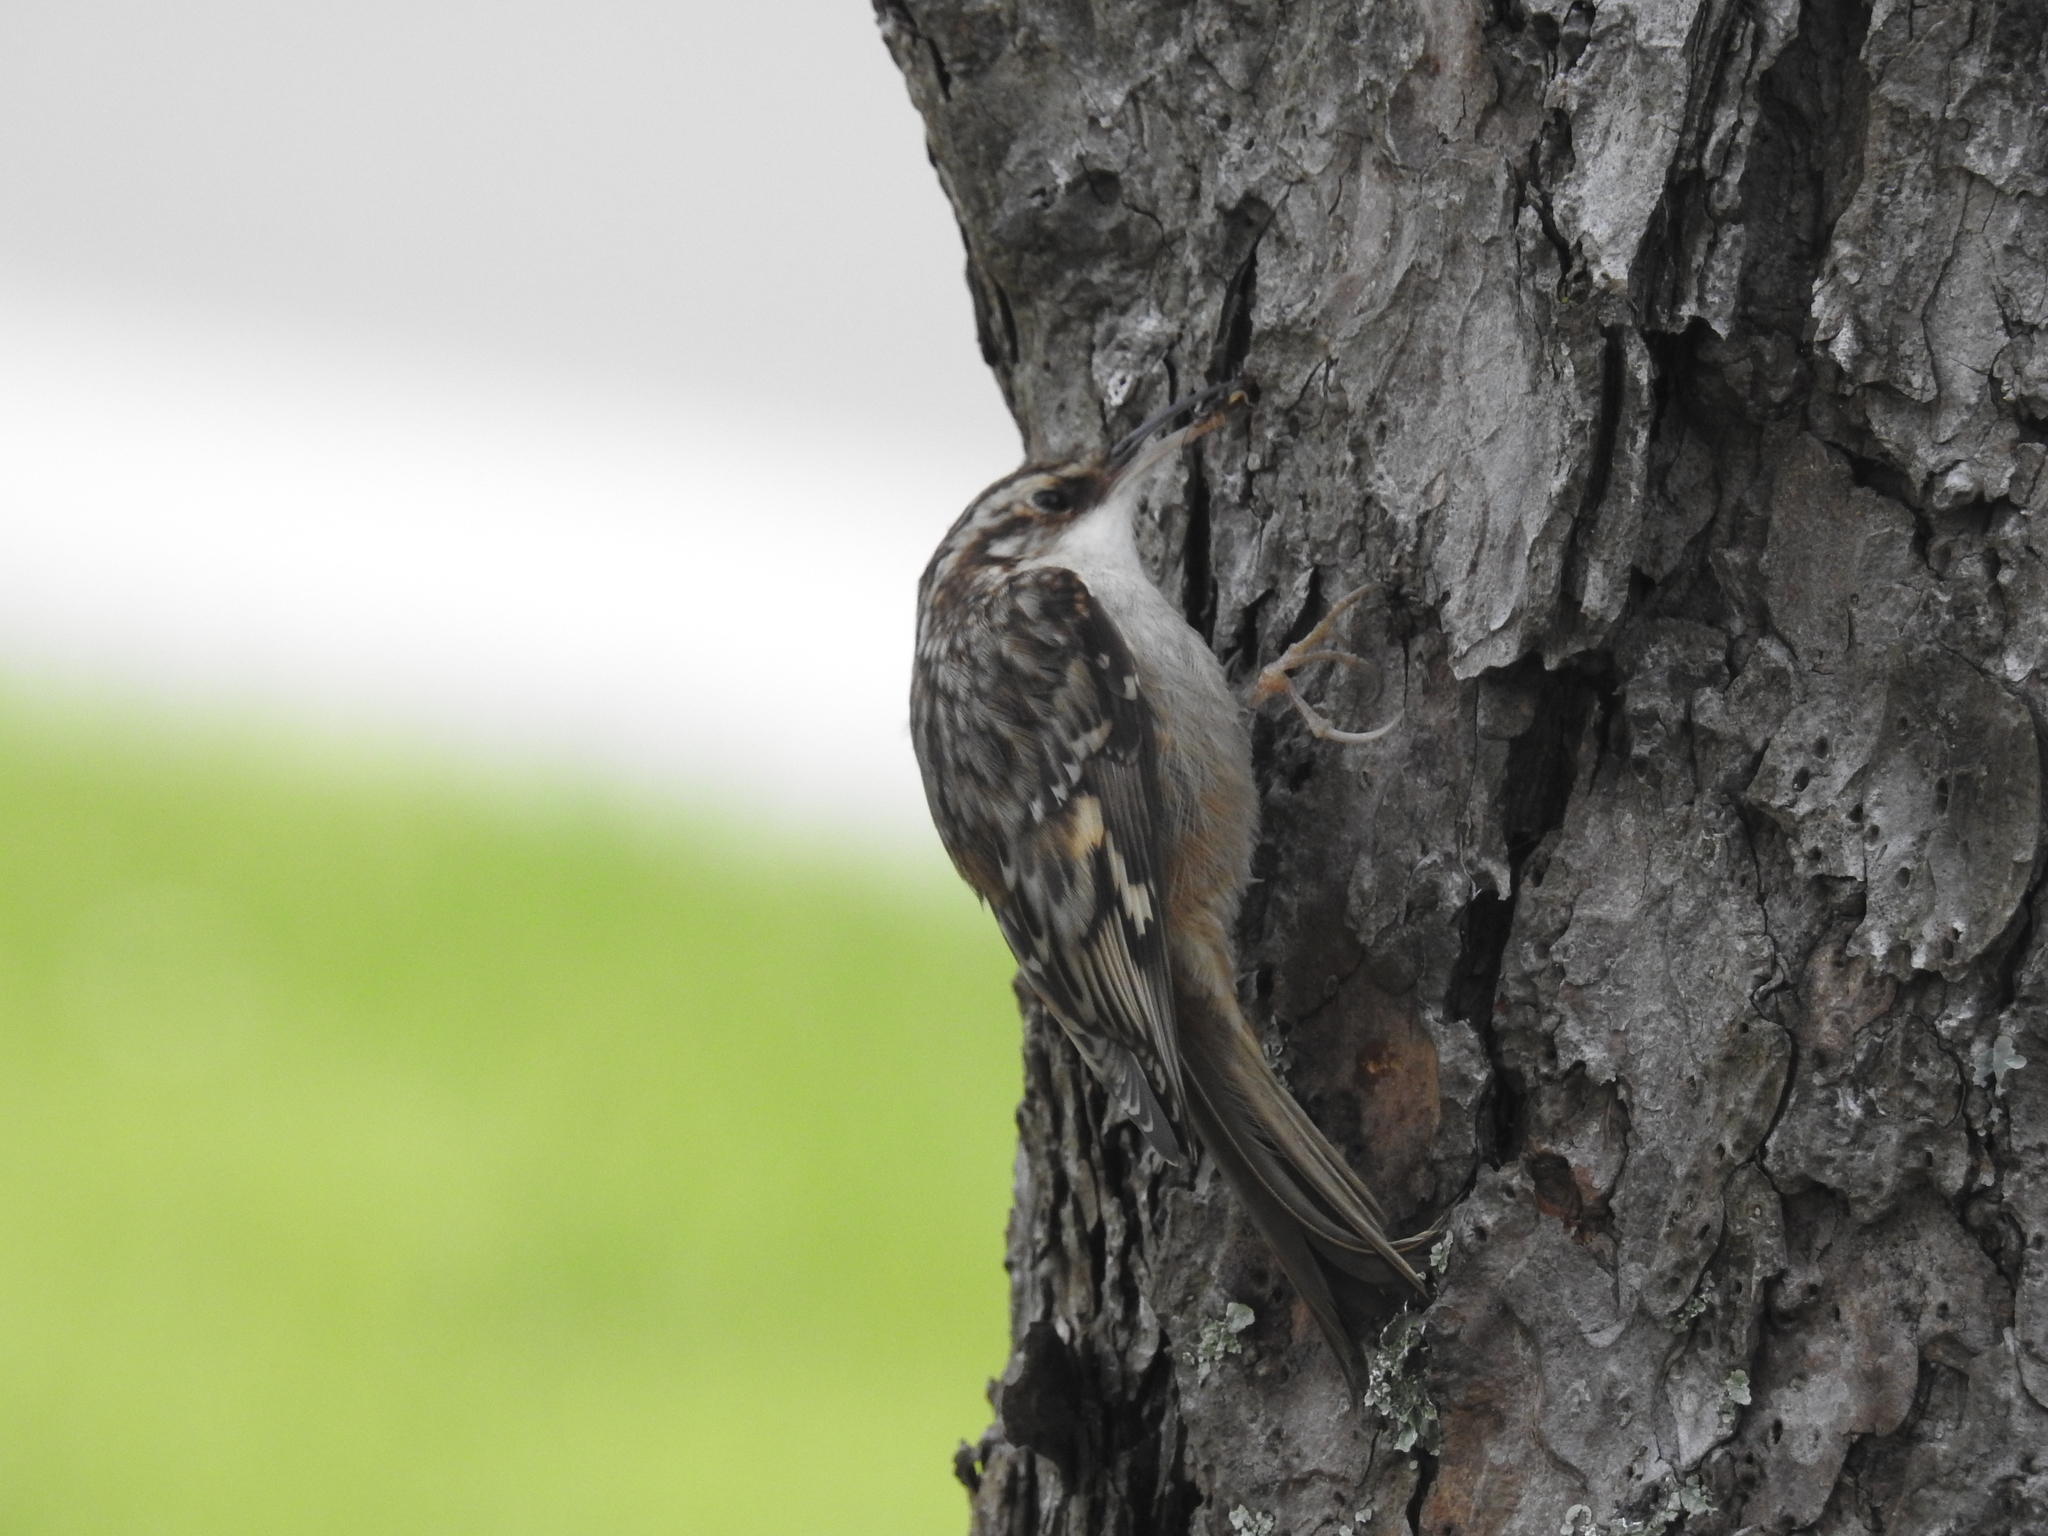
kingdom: Animalia
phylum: Chordata
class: Aves
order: Passeriformes
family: Certhiidae
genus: Certhia
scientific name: Certhia americana
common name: Brown creeper
